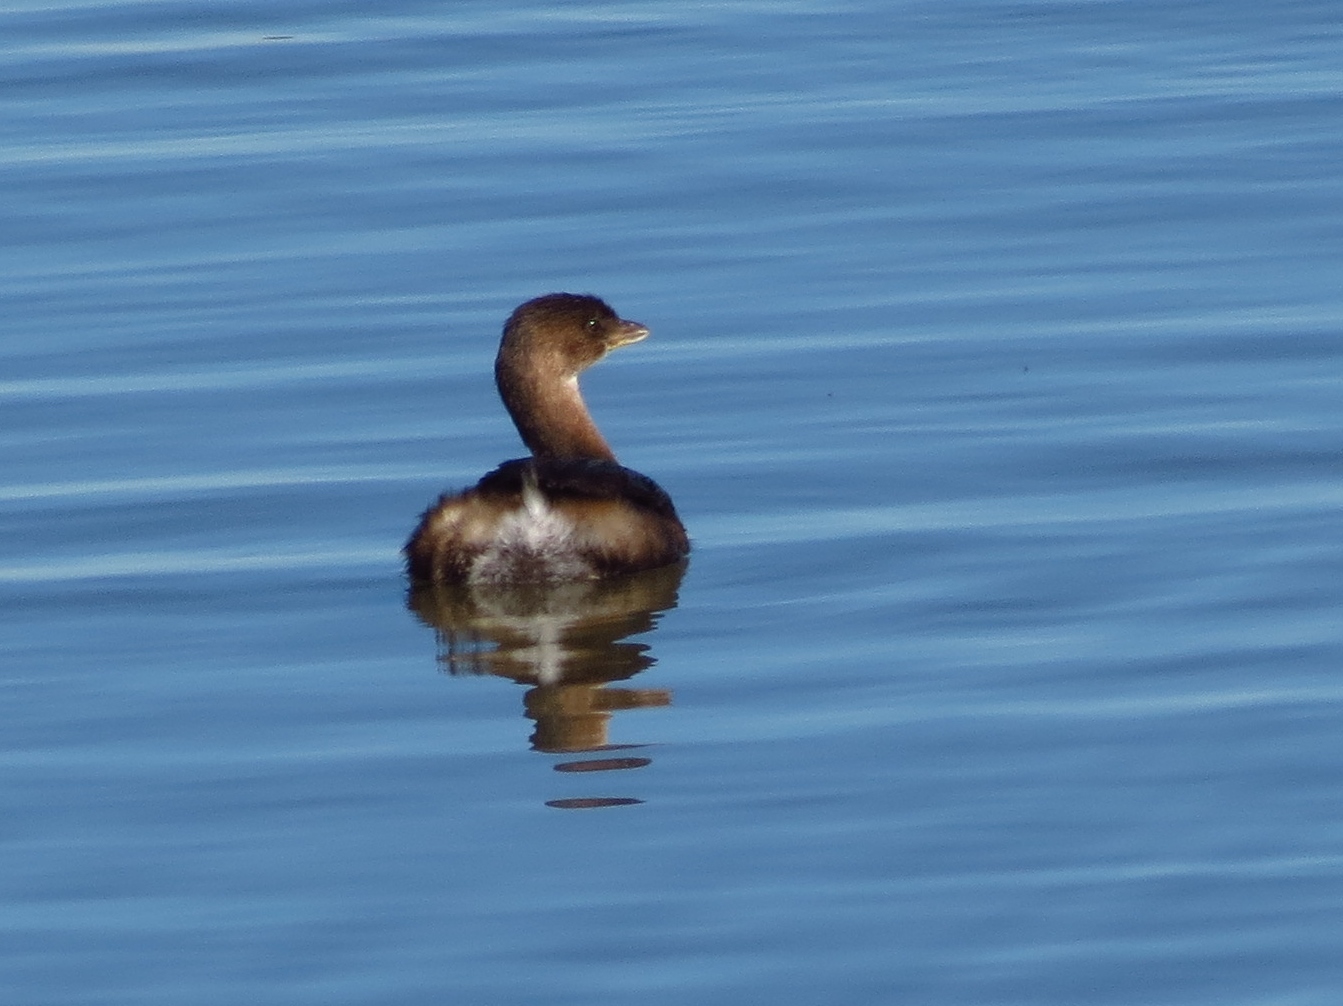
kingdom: Animalia
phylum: Chordata
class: Aves
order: Podicipediformes
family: Podicipedidae
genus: Podilymbus
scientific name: Podilymbus podiceps
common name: Pied-billed grebe
